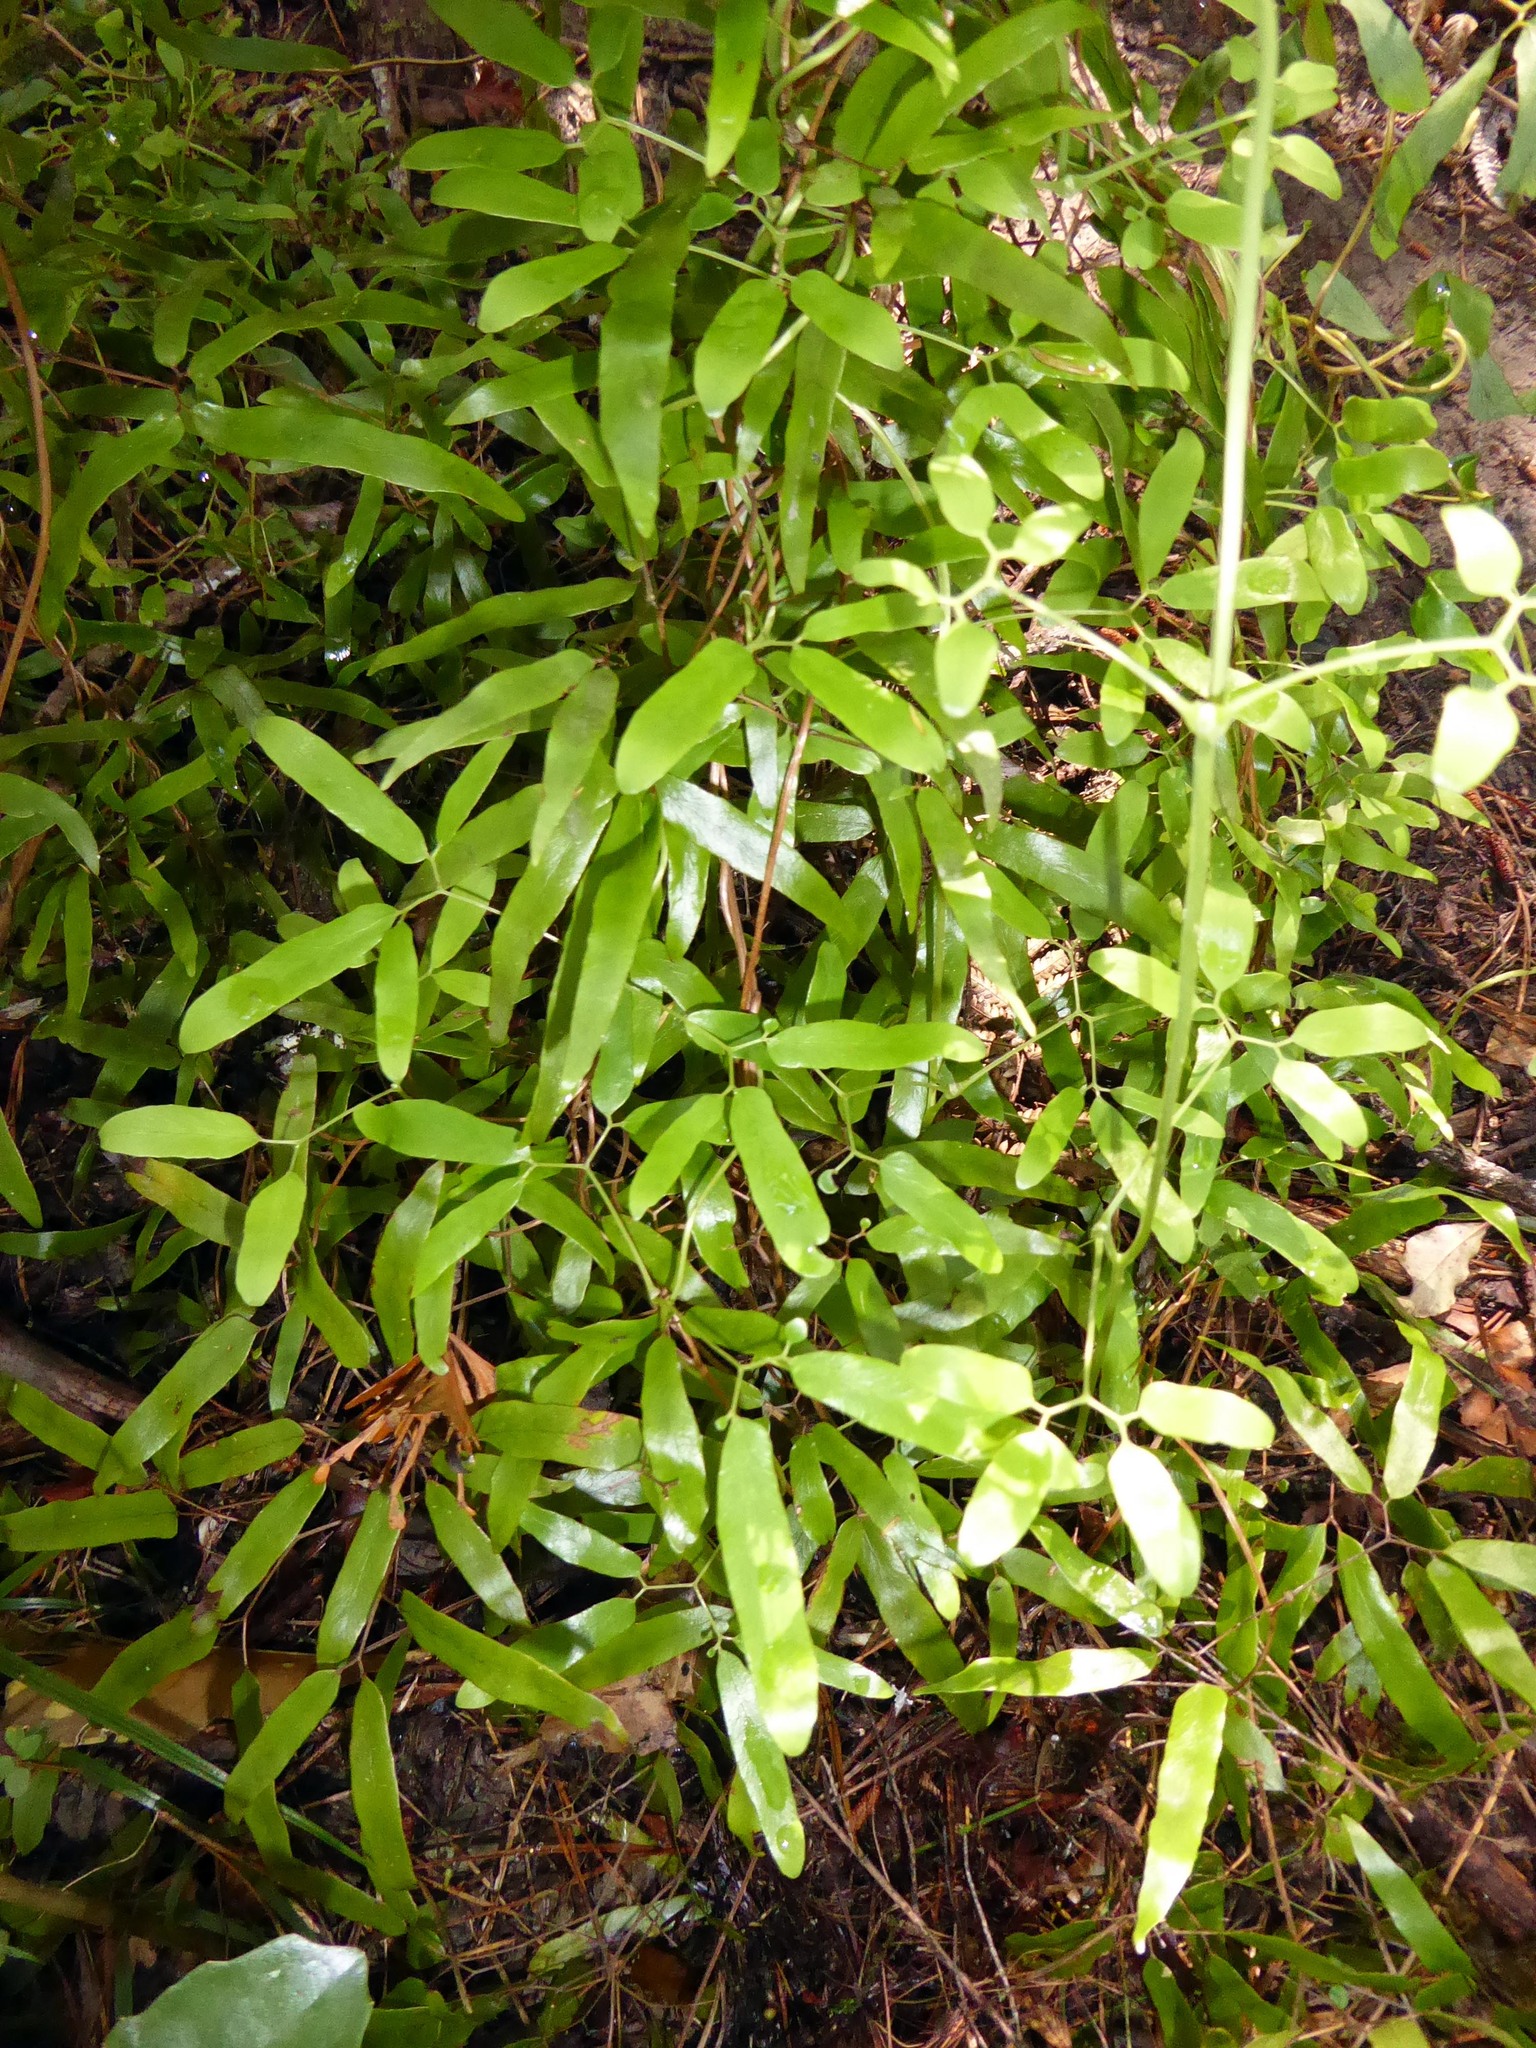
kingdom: Plantae
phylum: Tracheophyta
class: Polypodiopsida
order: Schizaeales
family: Lygodiaceae
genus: Lygodium
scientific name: Lygodium articulatum
